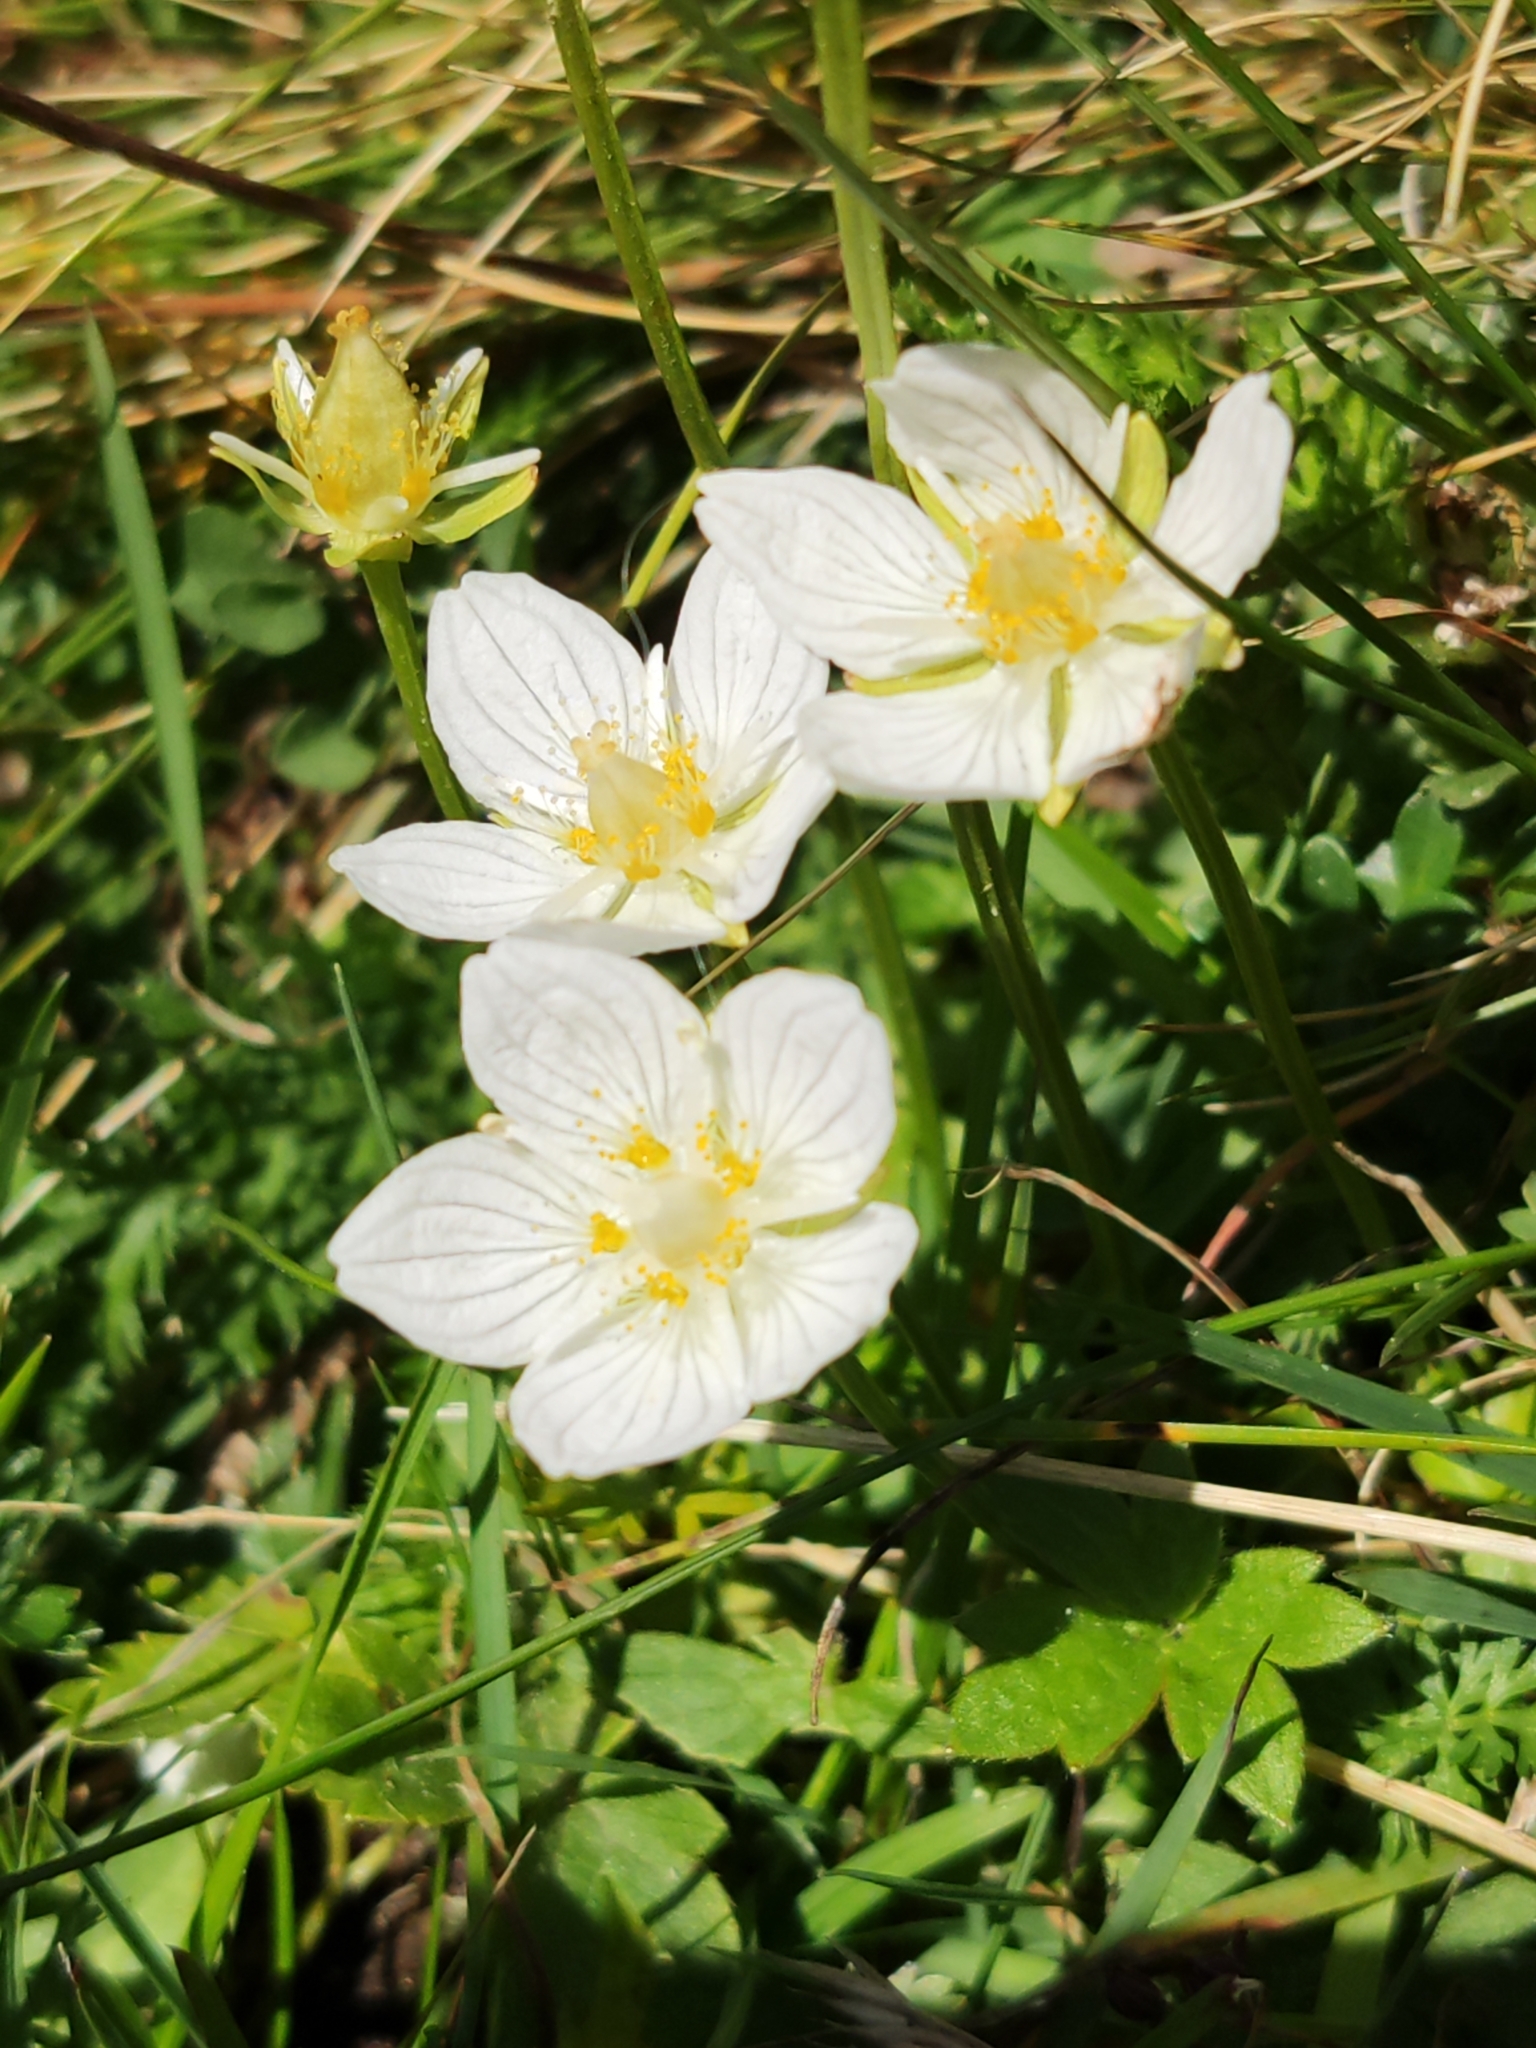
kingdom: Plantae
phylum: Tracheophyta
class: Magnoliopsida
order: Celastrales
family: Parnassiaceae
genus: Parnassia
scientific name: Parnassia palustris
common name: Grass-of-parnassus
